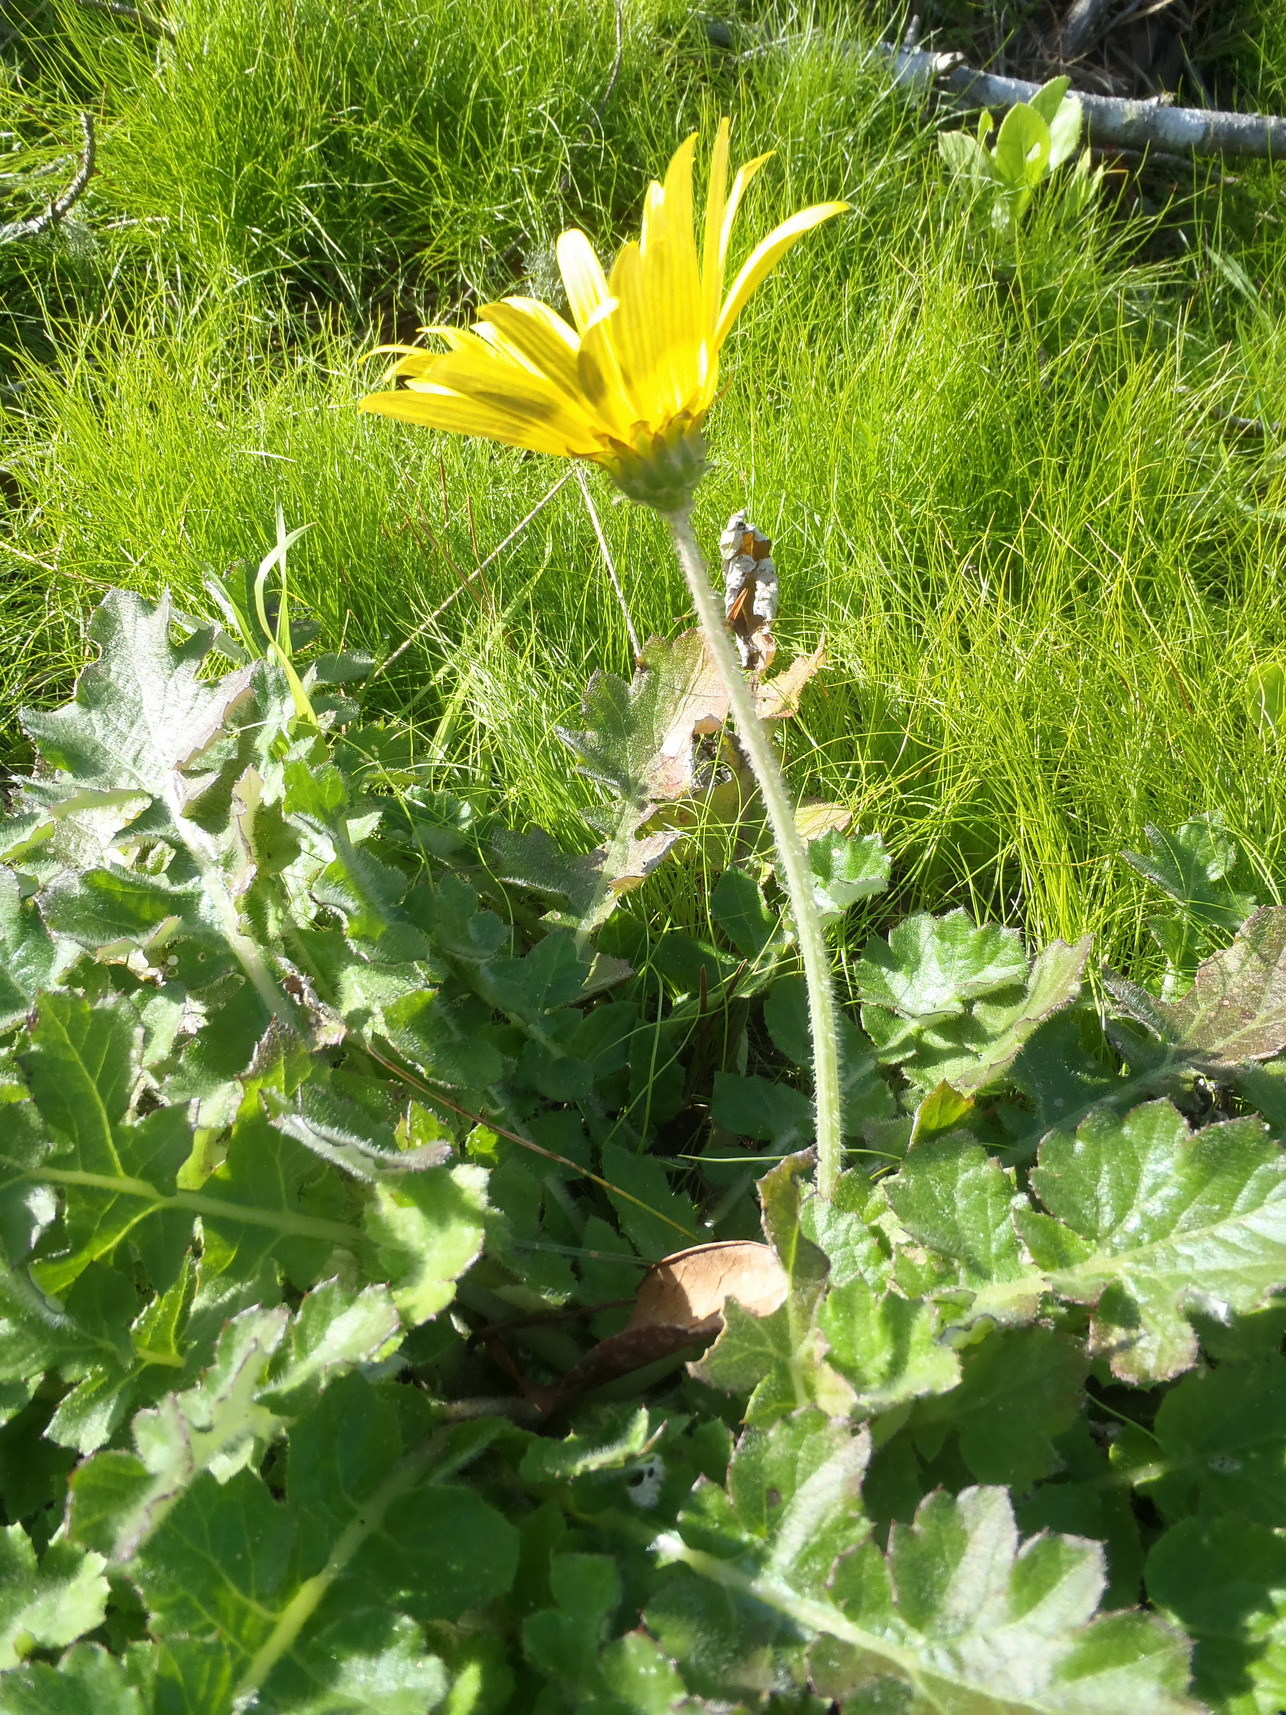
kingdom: Plantae
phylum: Tracheophyta
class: Magnoliopsida
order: Asterales
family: Asteraceae
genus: Arctotheca
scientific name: Arctotheca prostrata
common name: Capeweed
